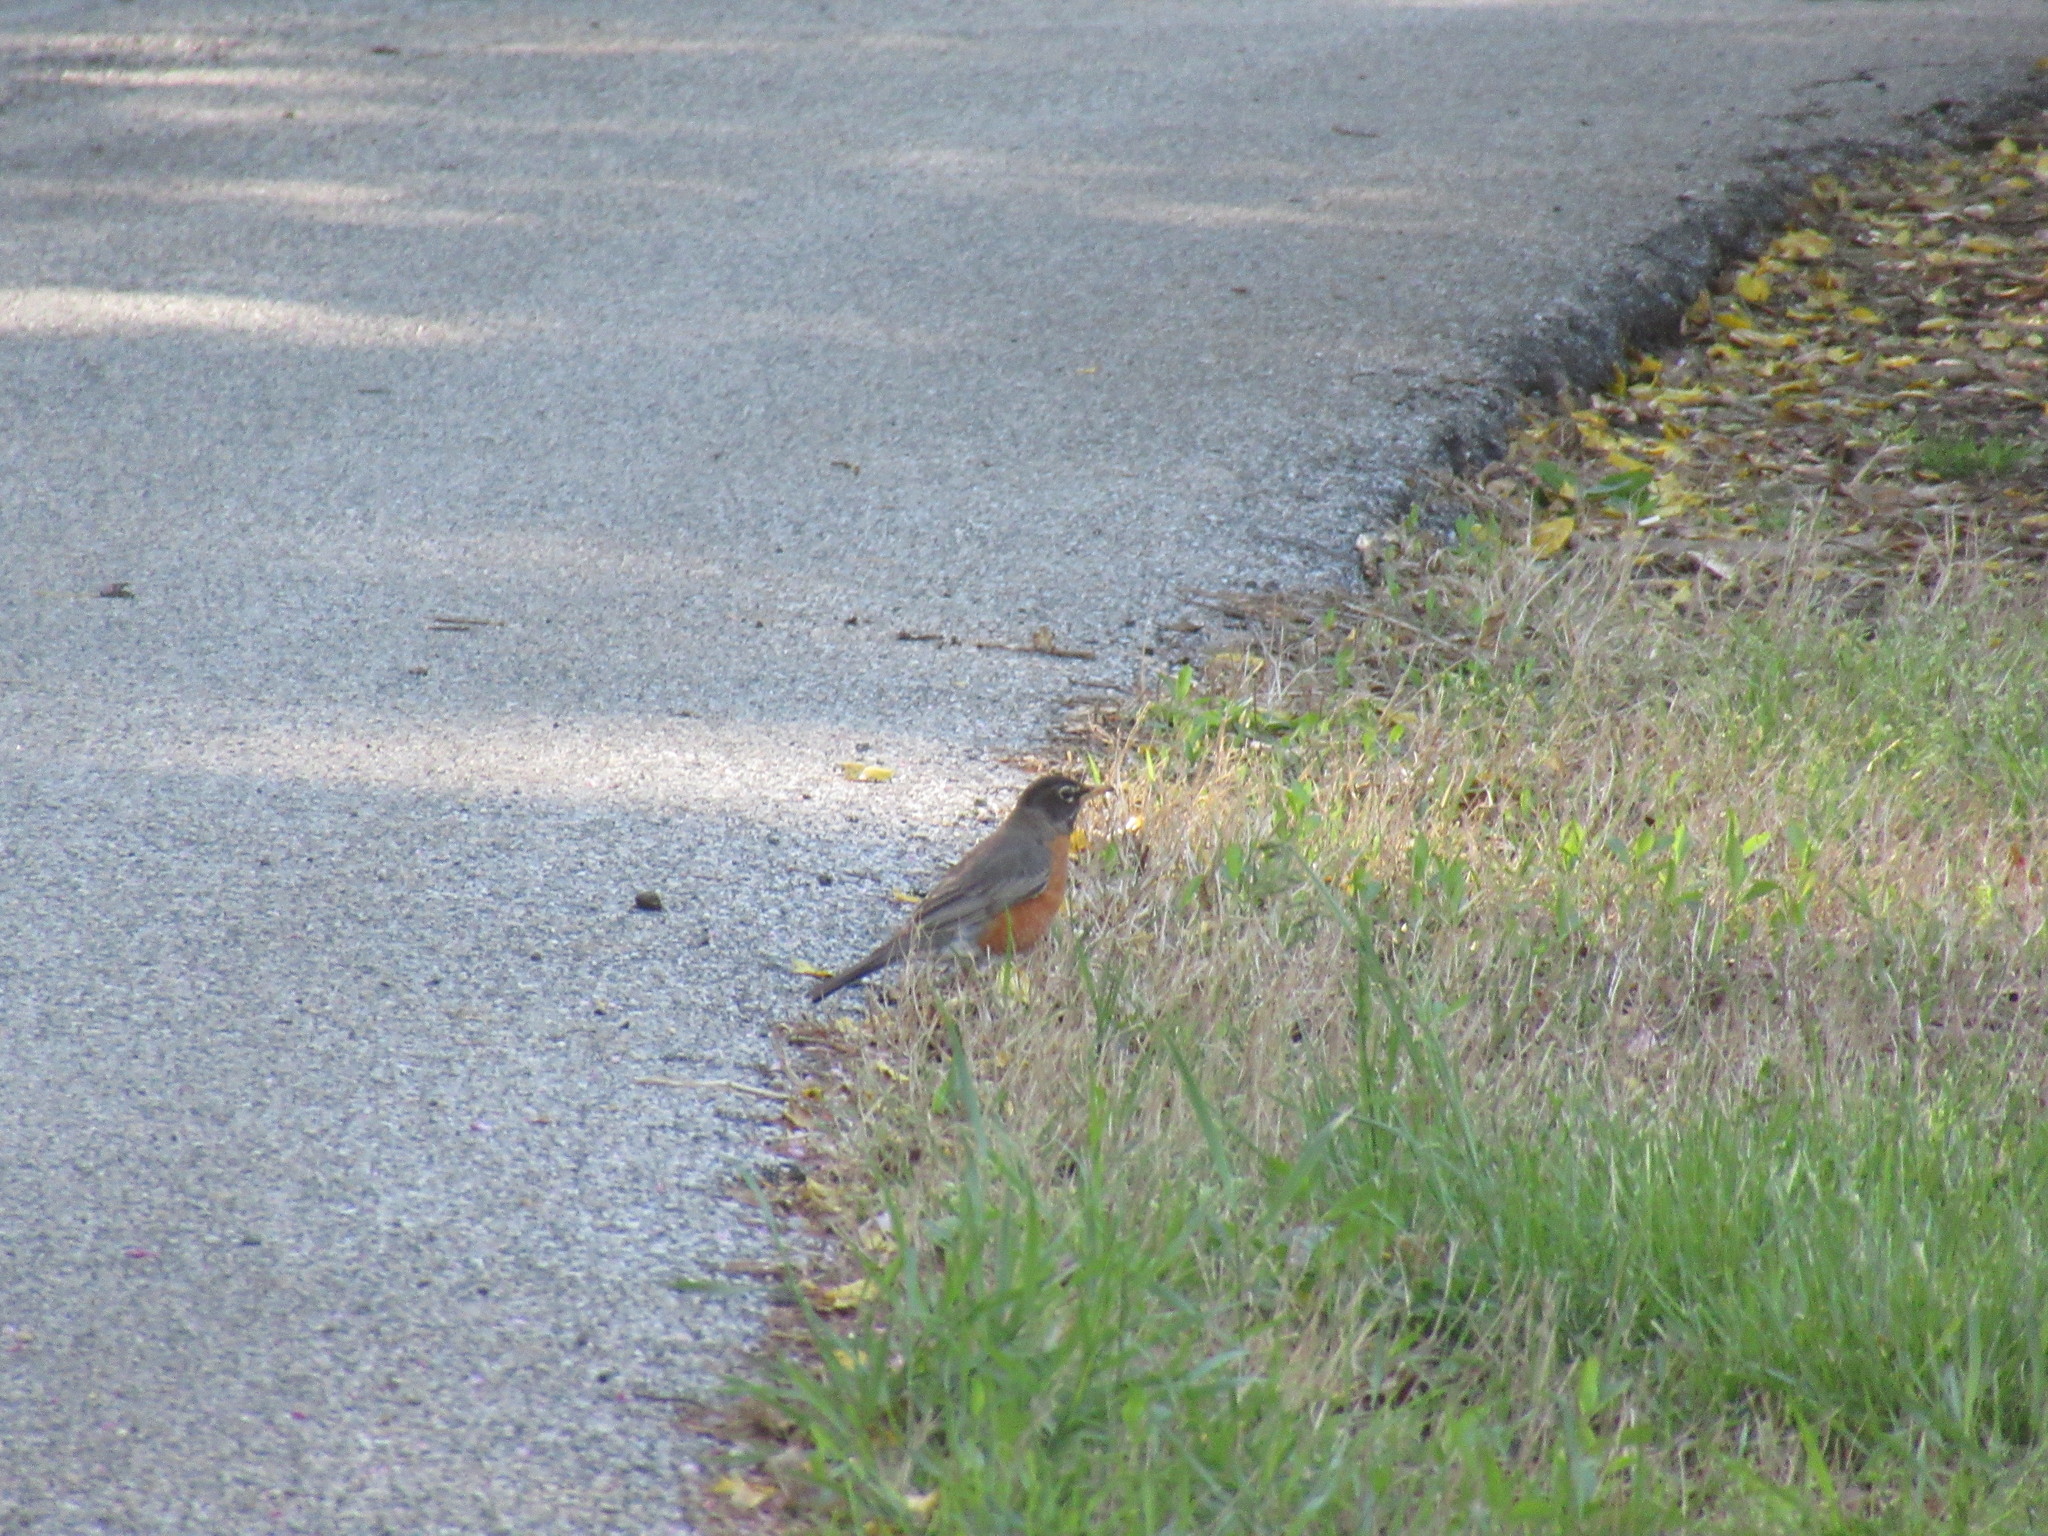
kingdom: Animalia
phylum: Chordata
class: Aves
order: Passeriformes
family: Turdidae
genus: Turdus
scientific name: Turdus migratorius
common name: American robin
